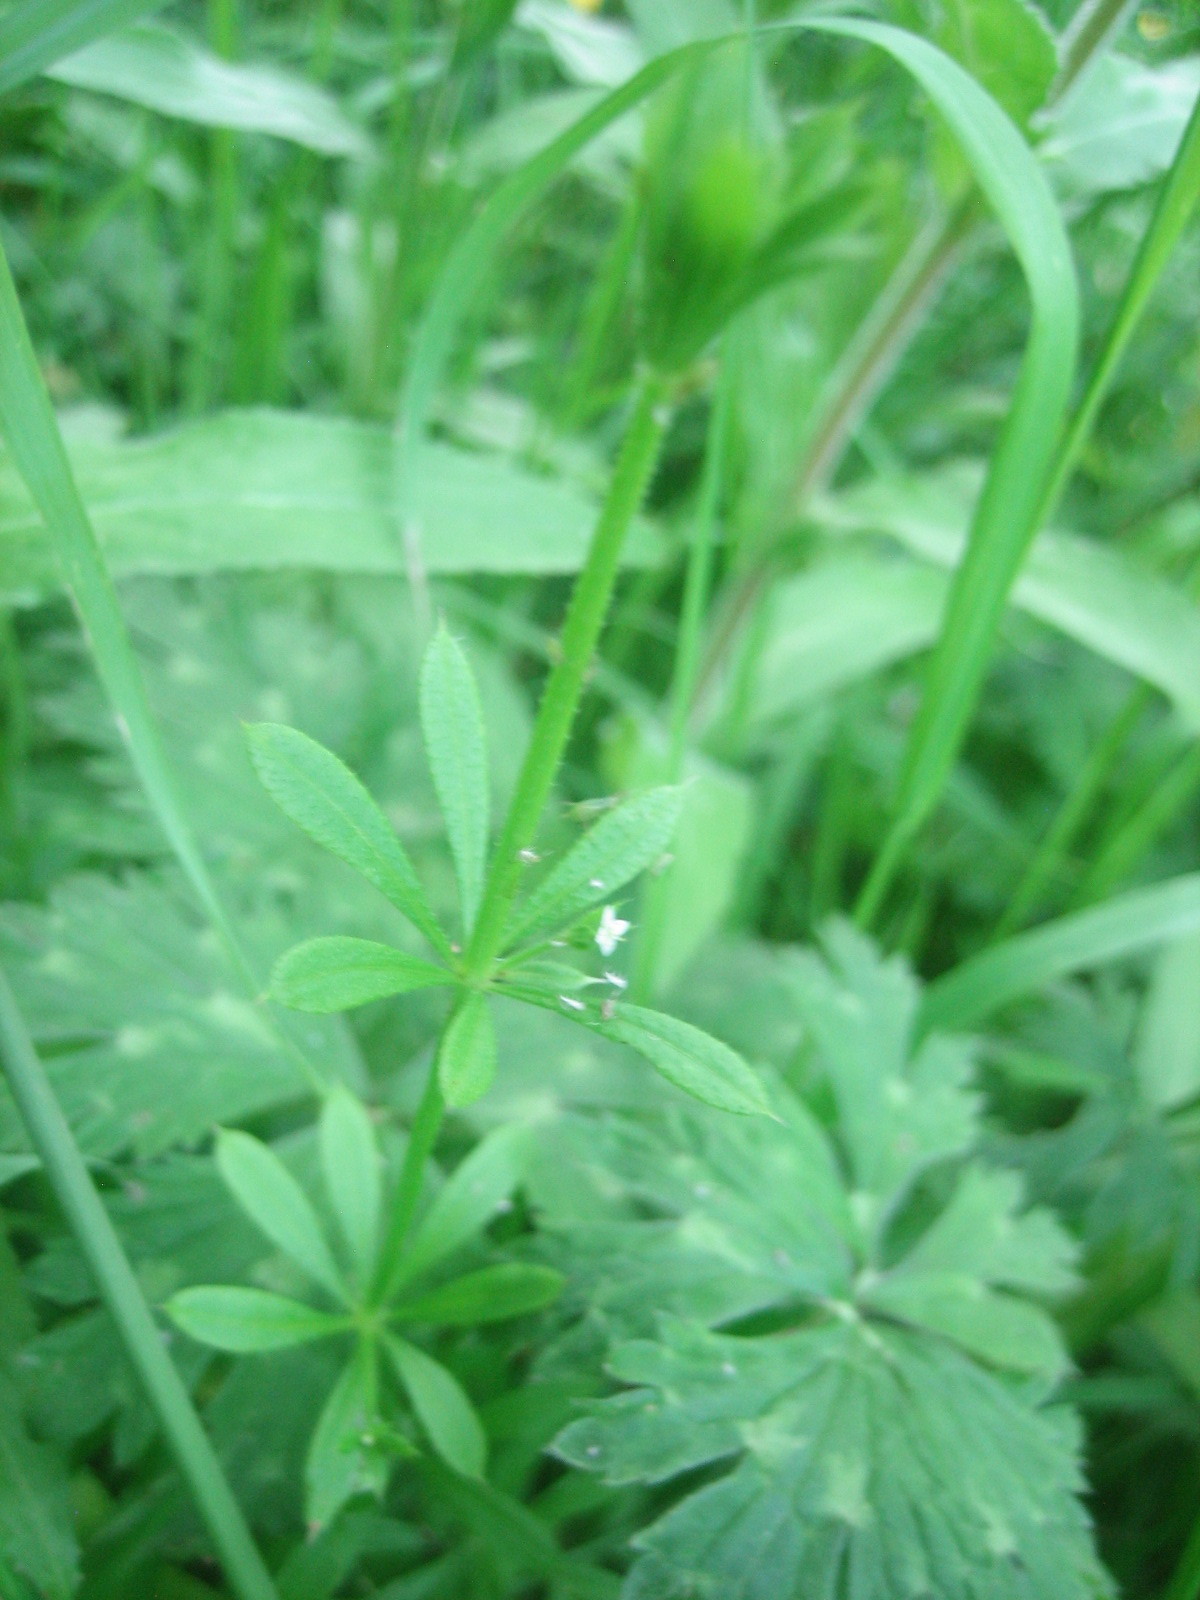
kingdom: Plantae
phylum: Tracheophyta
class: Magnoliopsida
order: Gentianales
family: Rubiaceae
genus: Galium
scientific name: Galium aparine
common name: Cleavers
